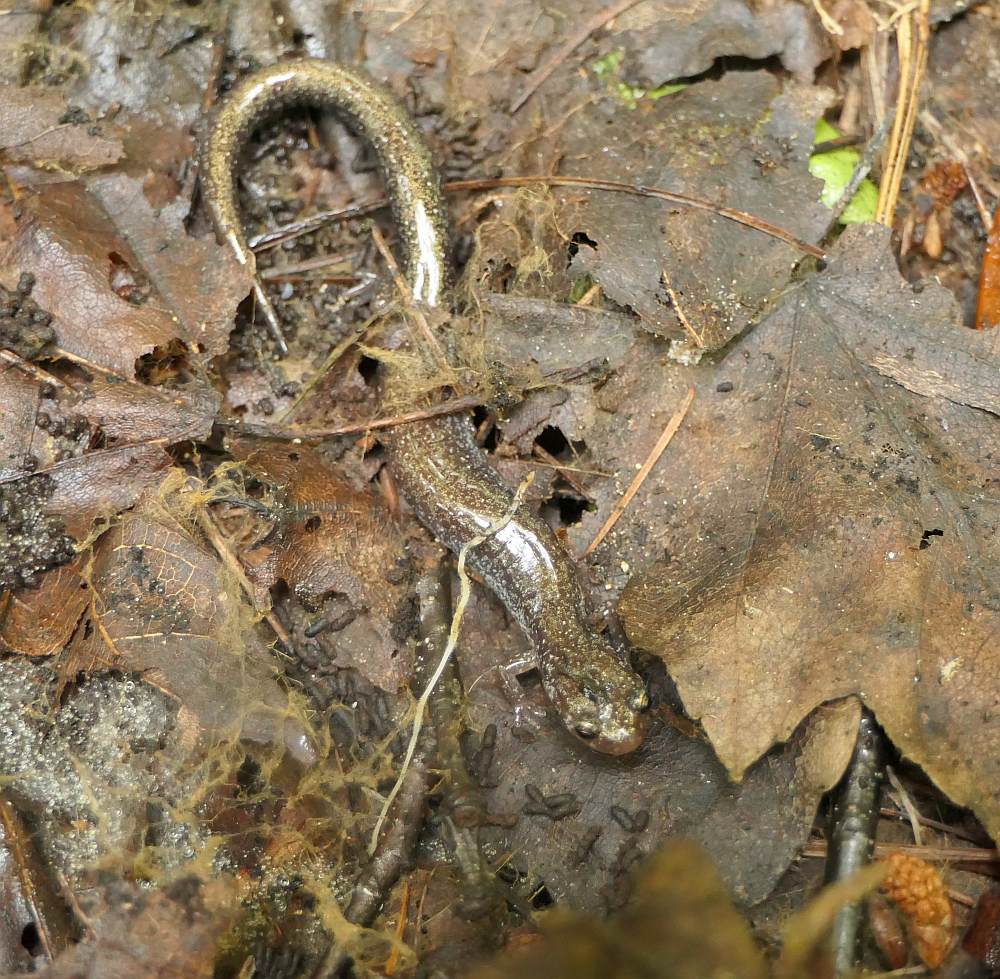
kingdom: Animalia
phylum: Chordata
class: Amphibia
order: Caudata
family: Plethodontidae
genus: Plethodon
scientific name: Plethodon cinereus
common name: Redback salamander
